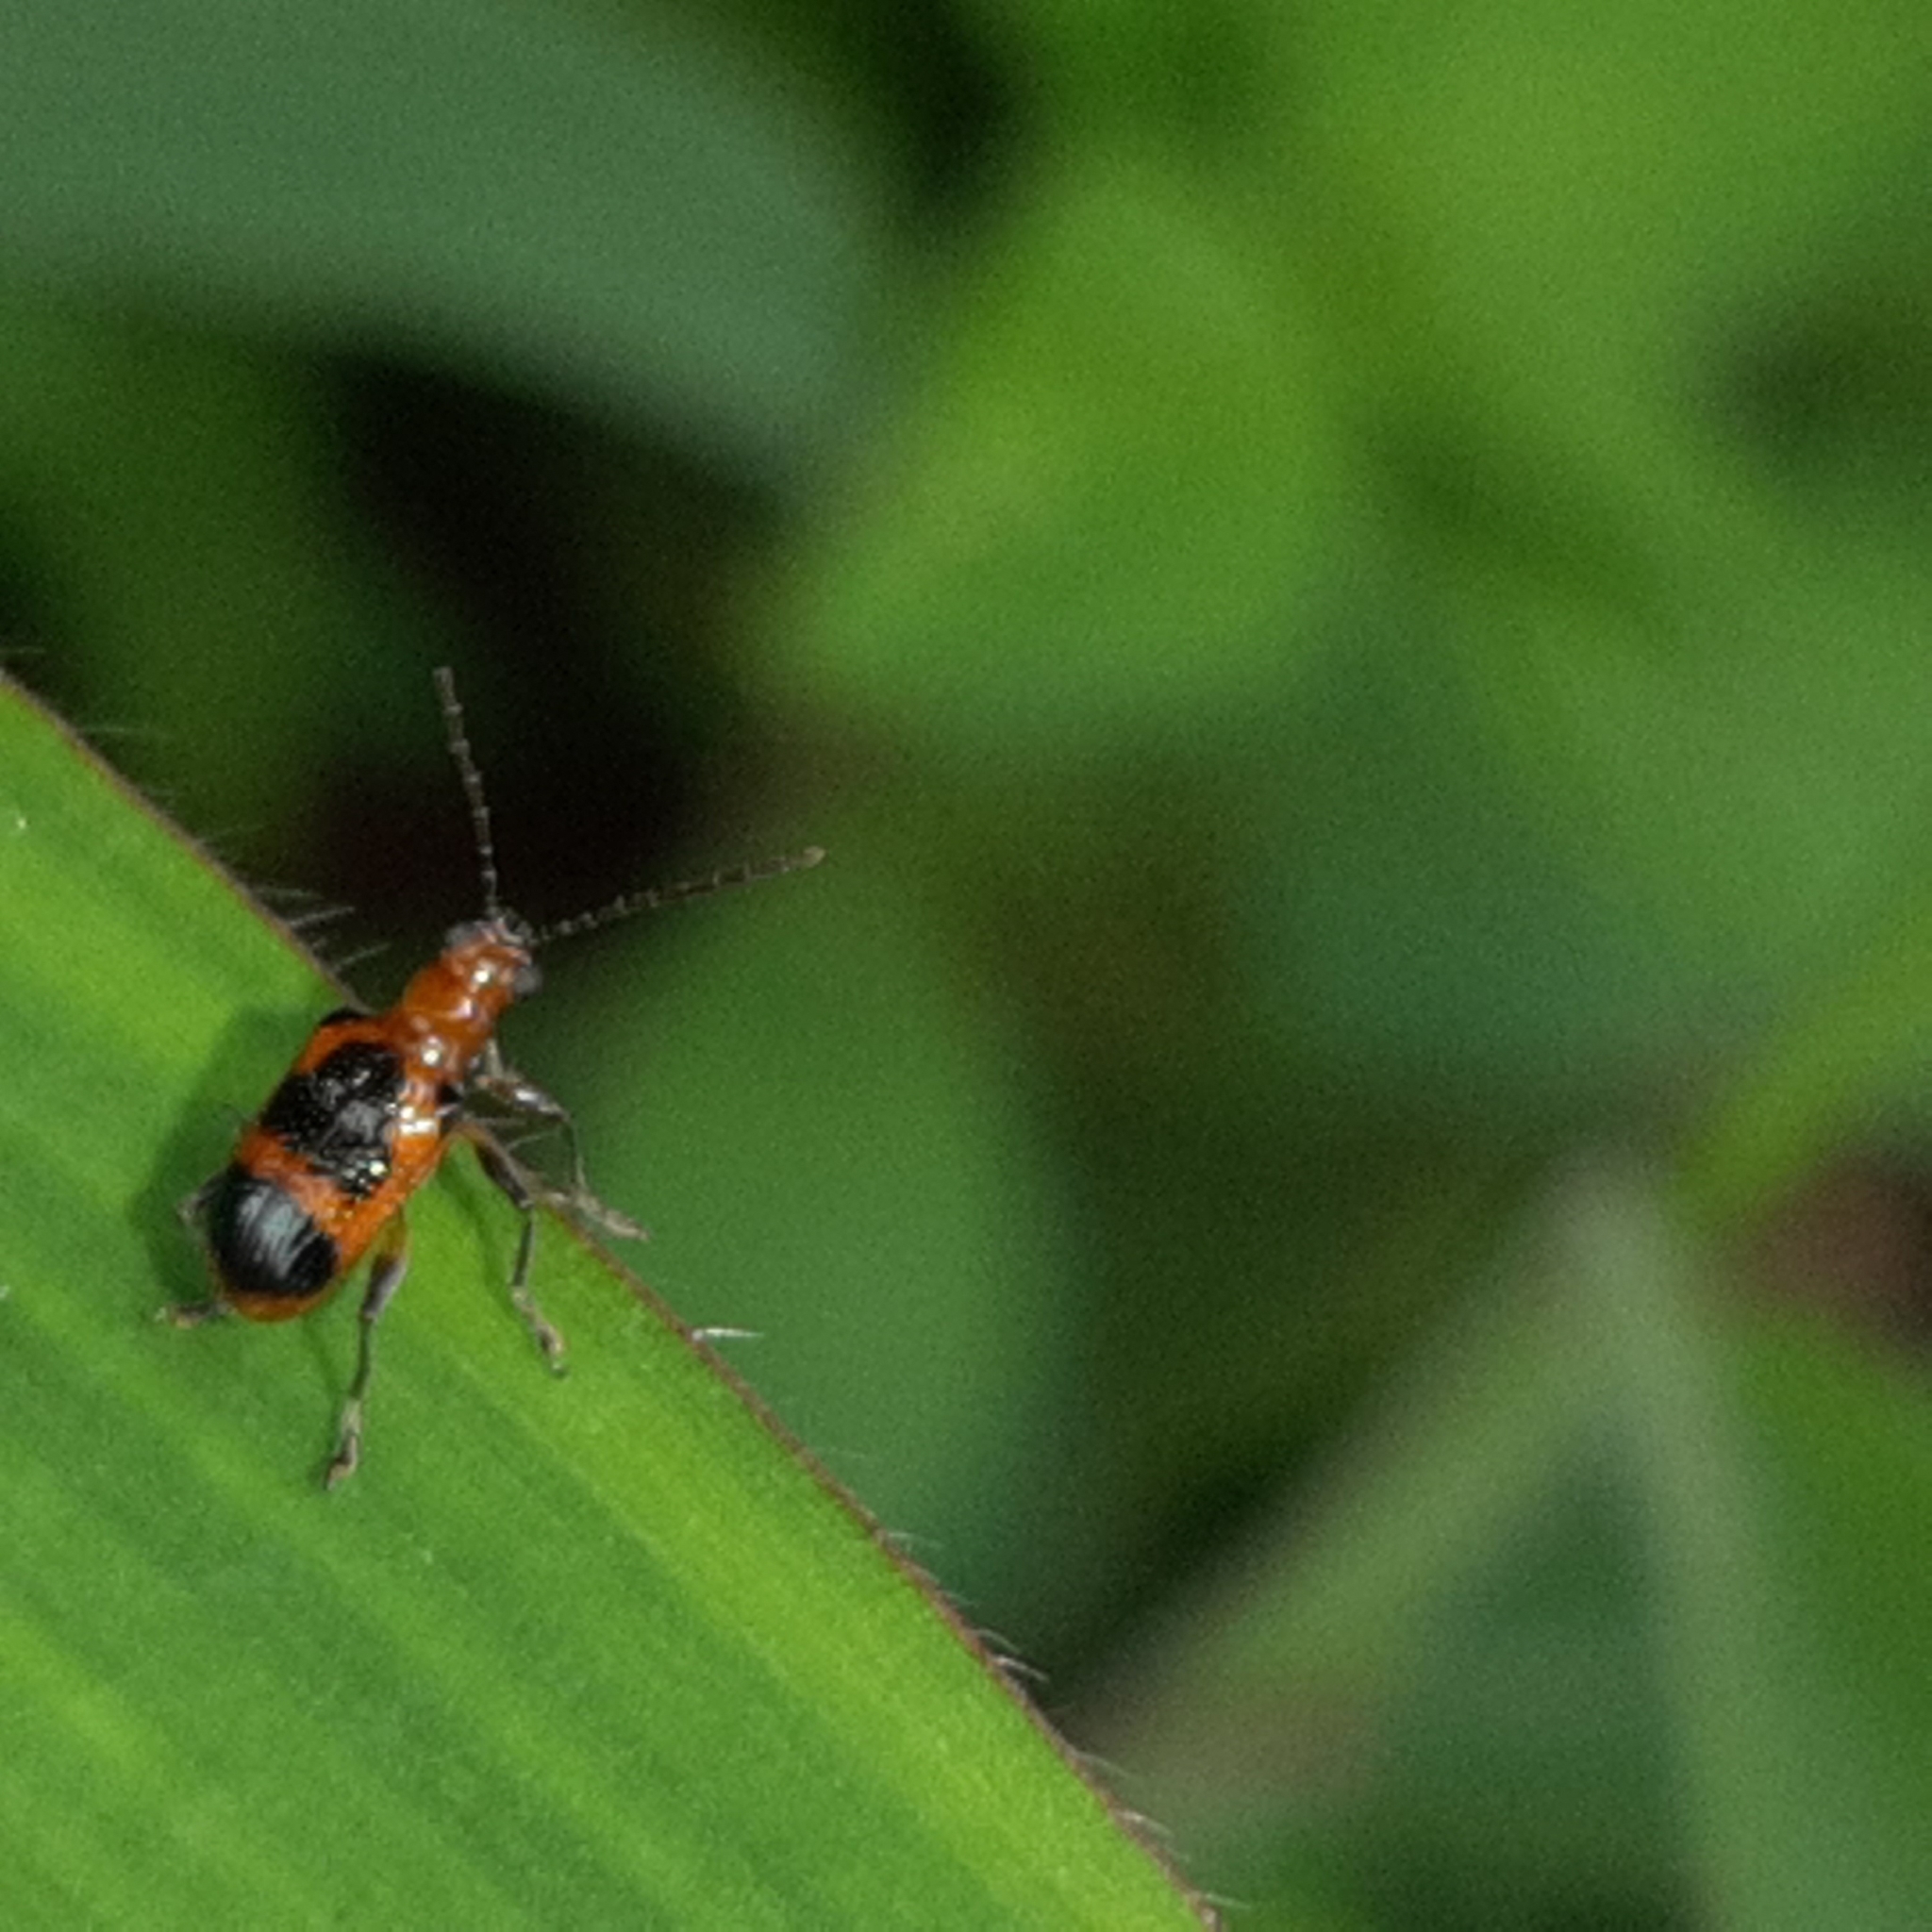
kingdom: Animalia
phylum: Arthropoda
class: Insecta
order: Coleoptera
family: Chrysomelidae
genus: Neolema
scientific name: Neolema dorsalis
